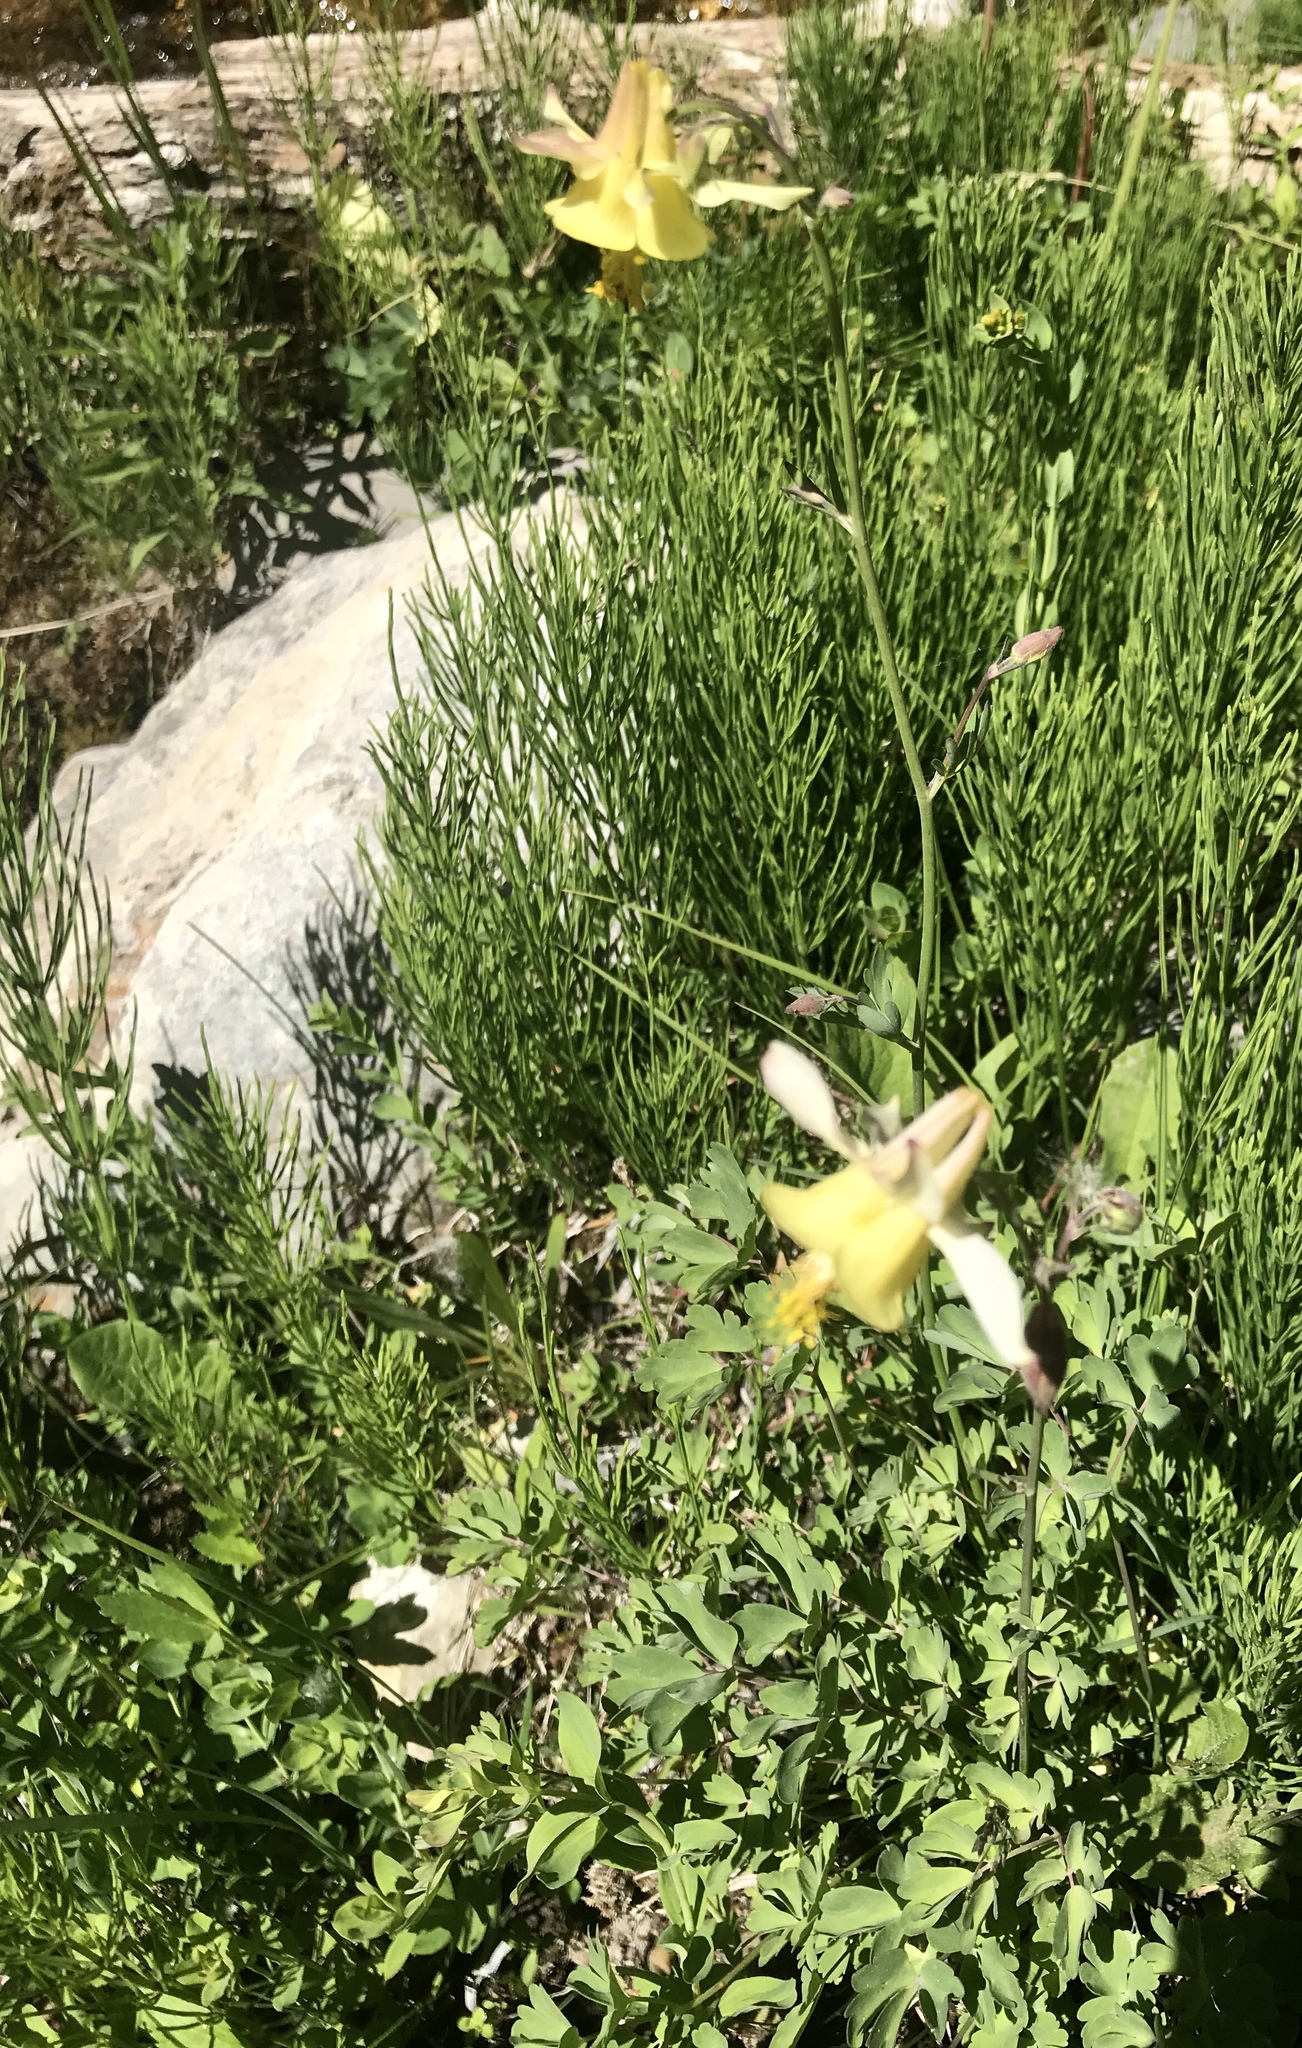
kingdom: Plantae
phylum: Tracheophyta
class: Magnoliopsida
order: Ranunculales
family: Ranunculaceae
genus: Aquilegia
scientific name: Aquilegia flavescens
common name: Yellow columbine
